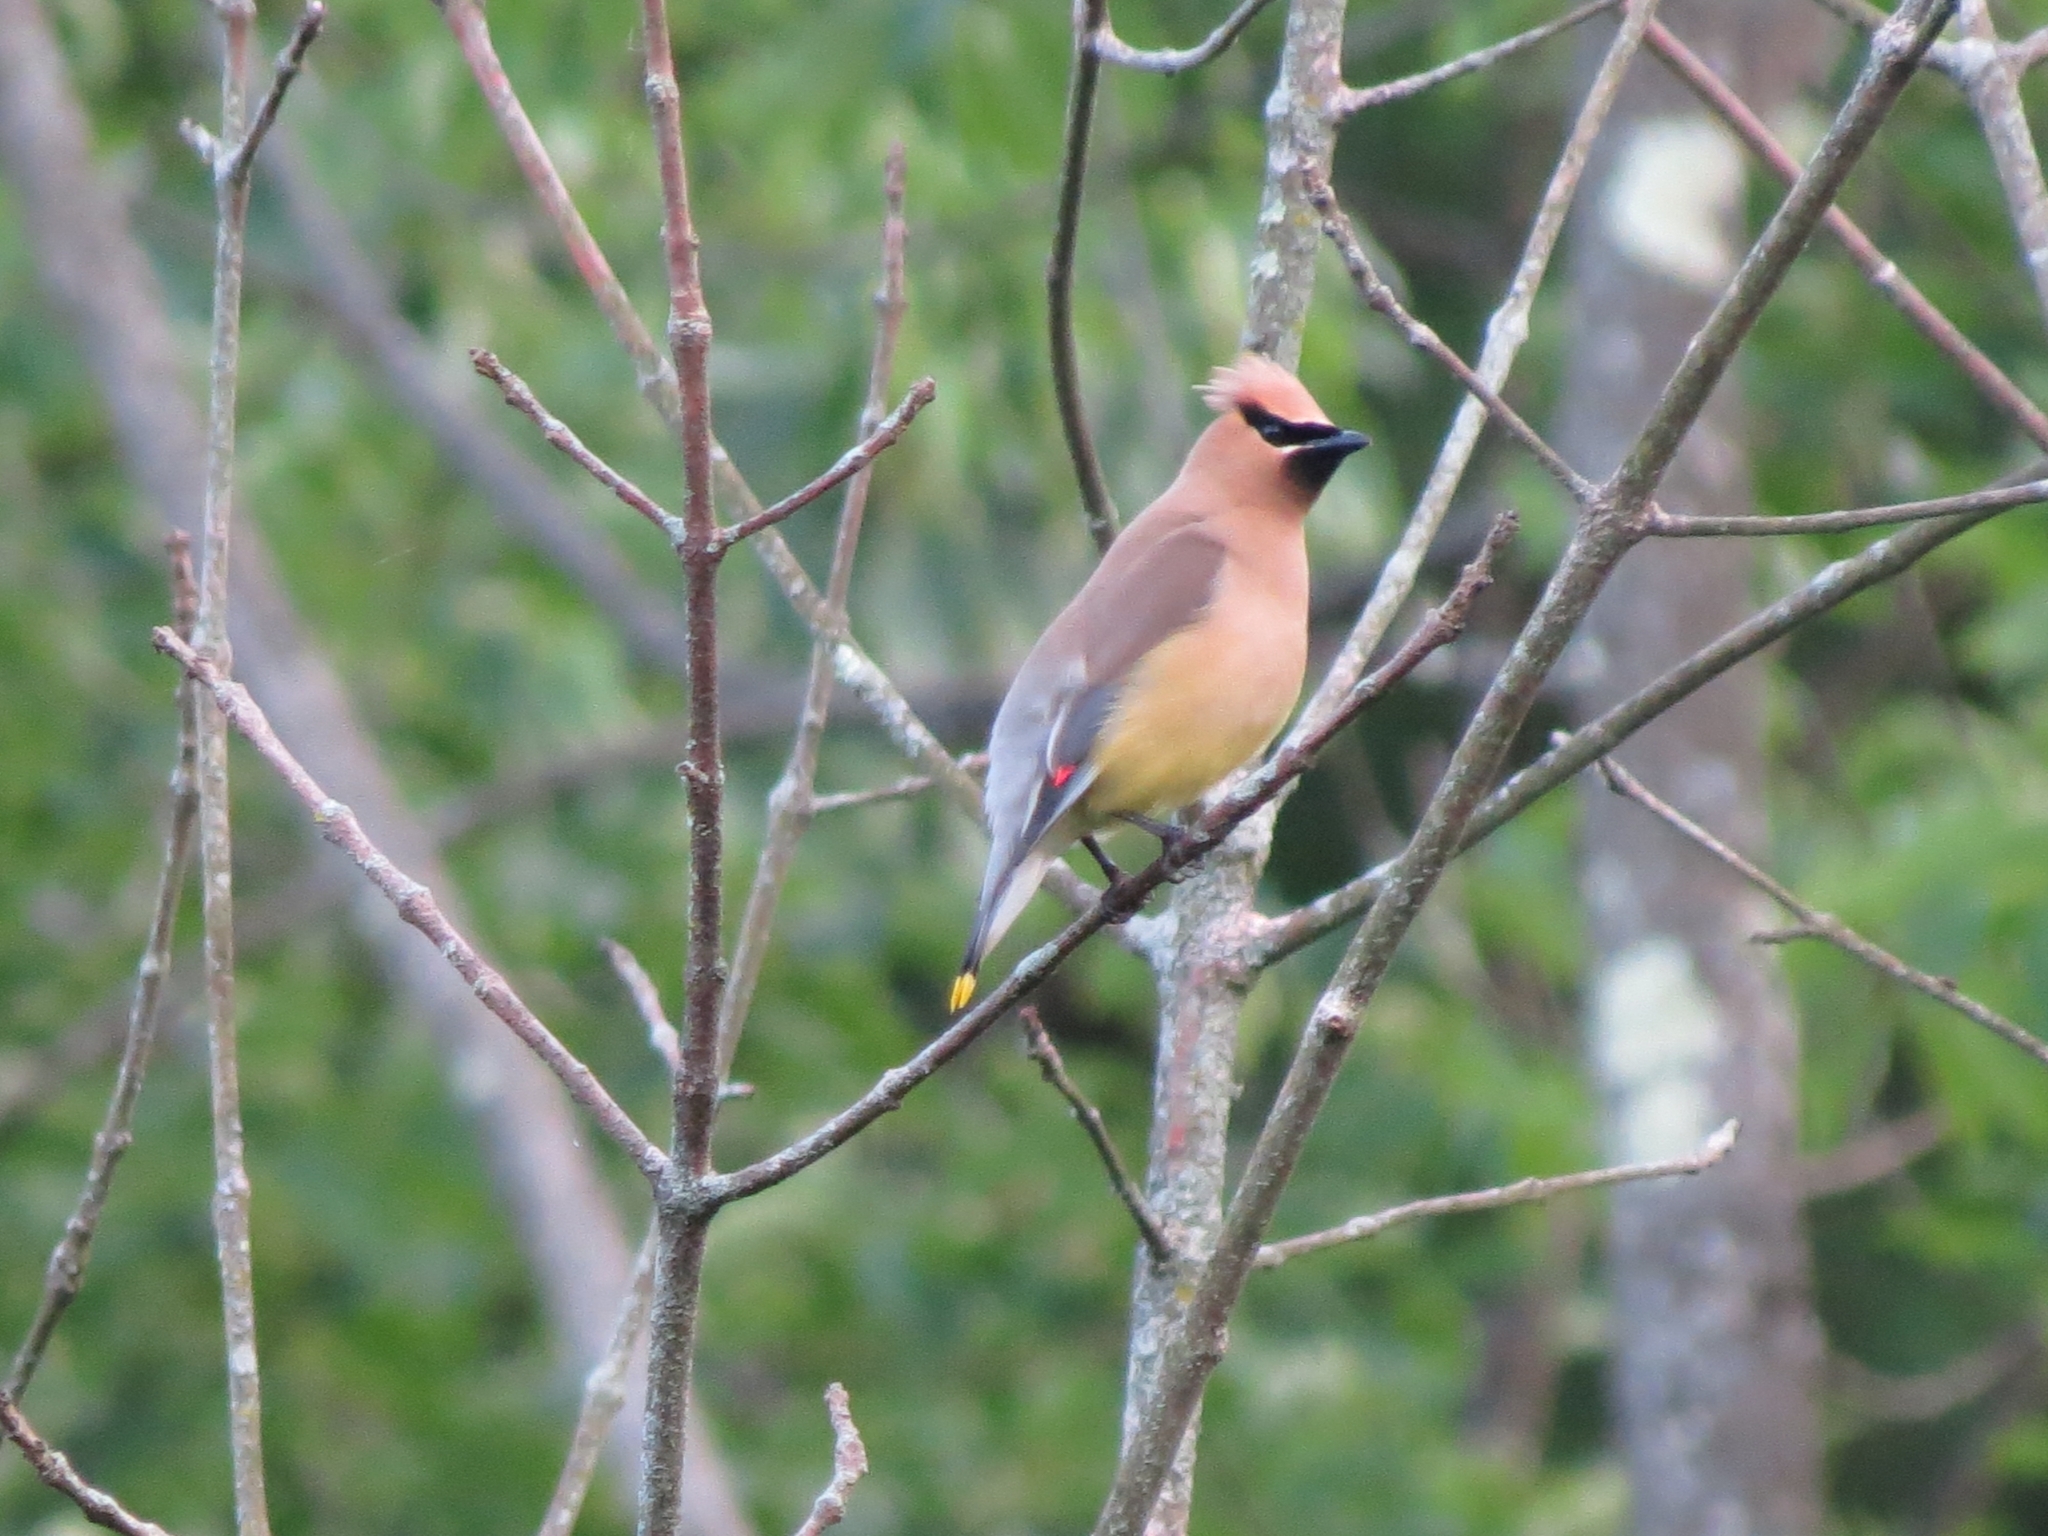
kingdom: Animalia
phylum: Chordata
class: Aves
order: Passeriformes
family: Bombycillidae
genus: Bombycilla
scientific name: Bombycilla cedrorum
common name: Cedar waxwing
